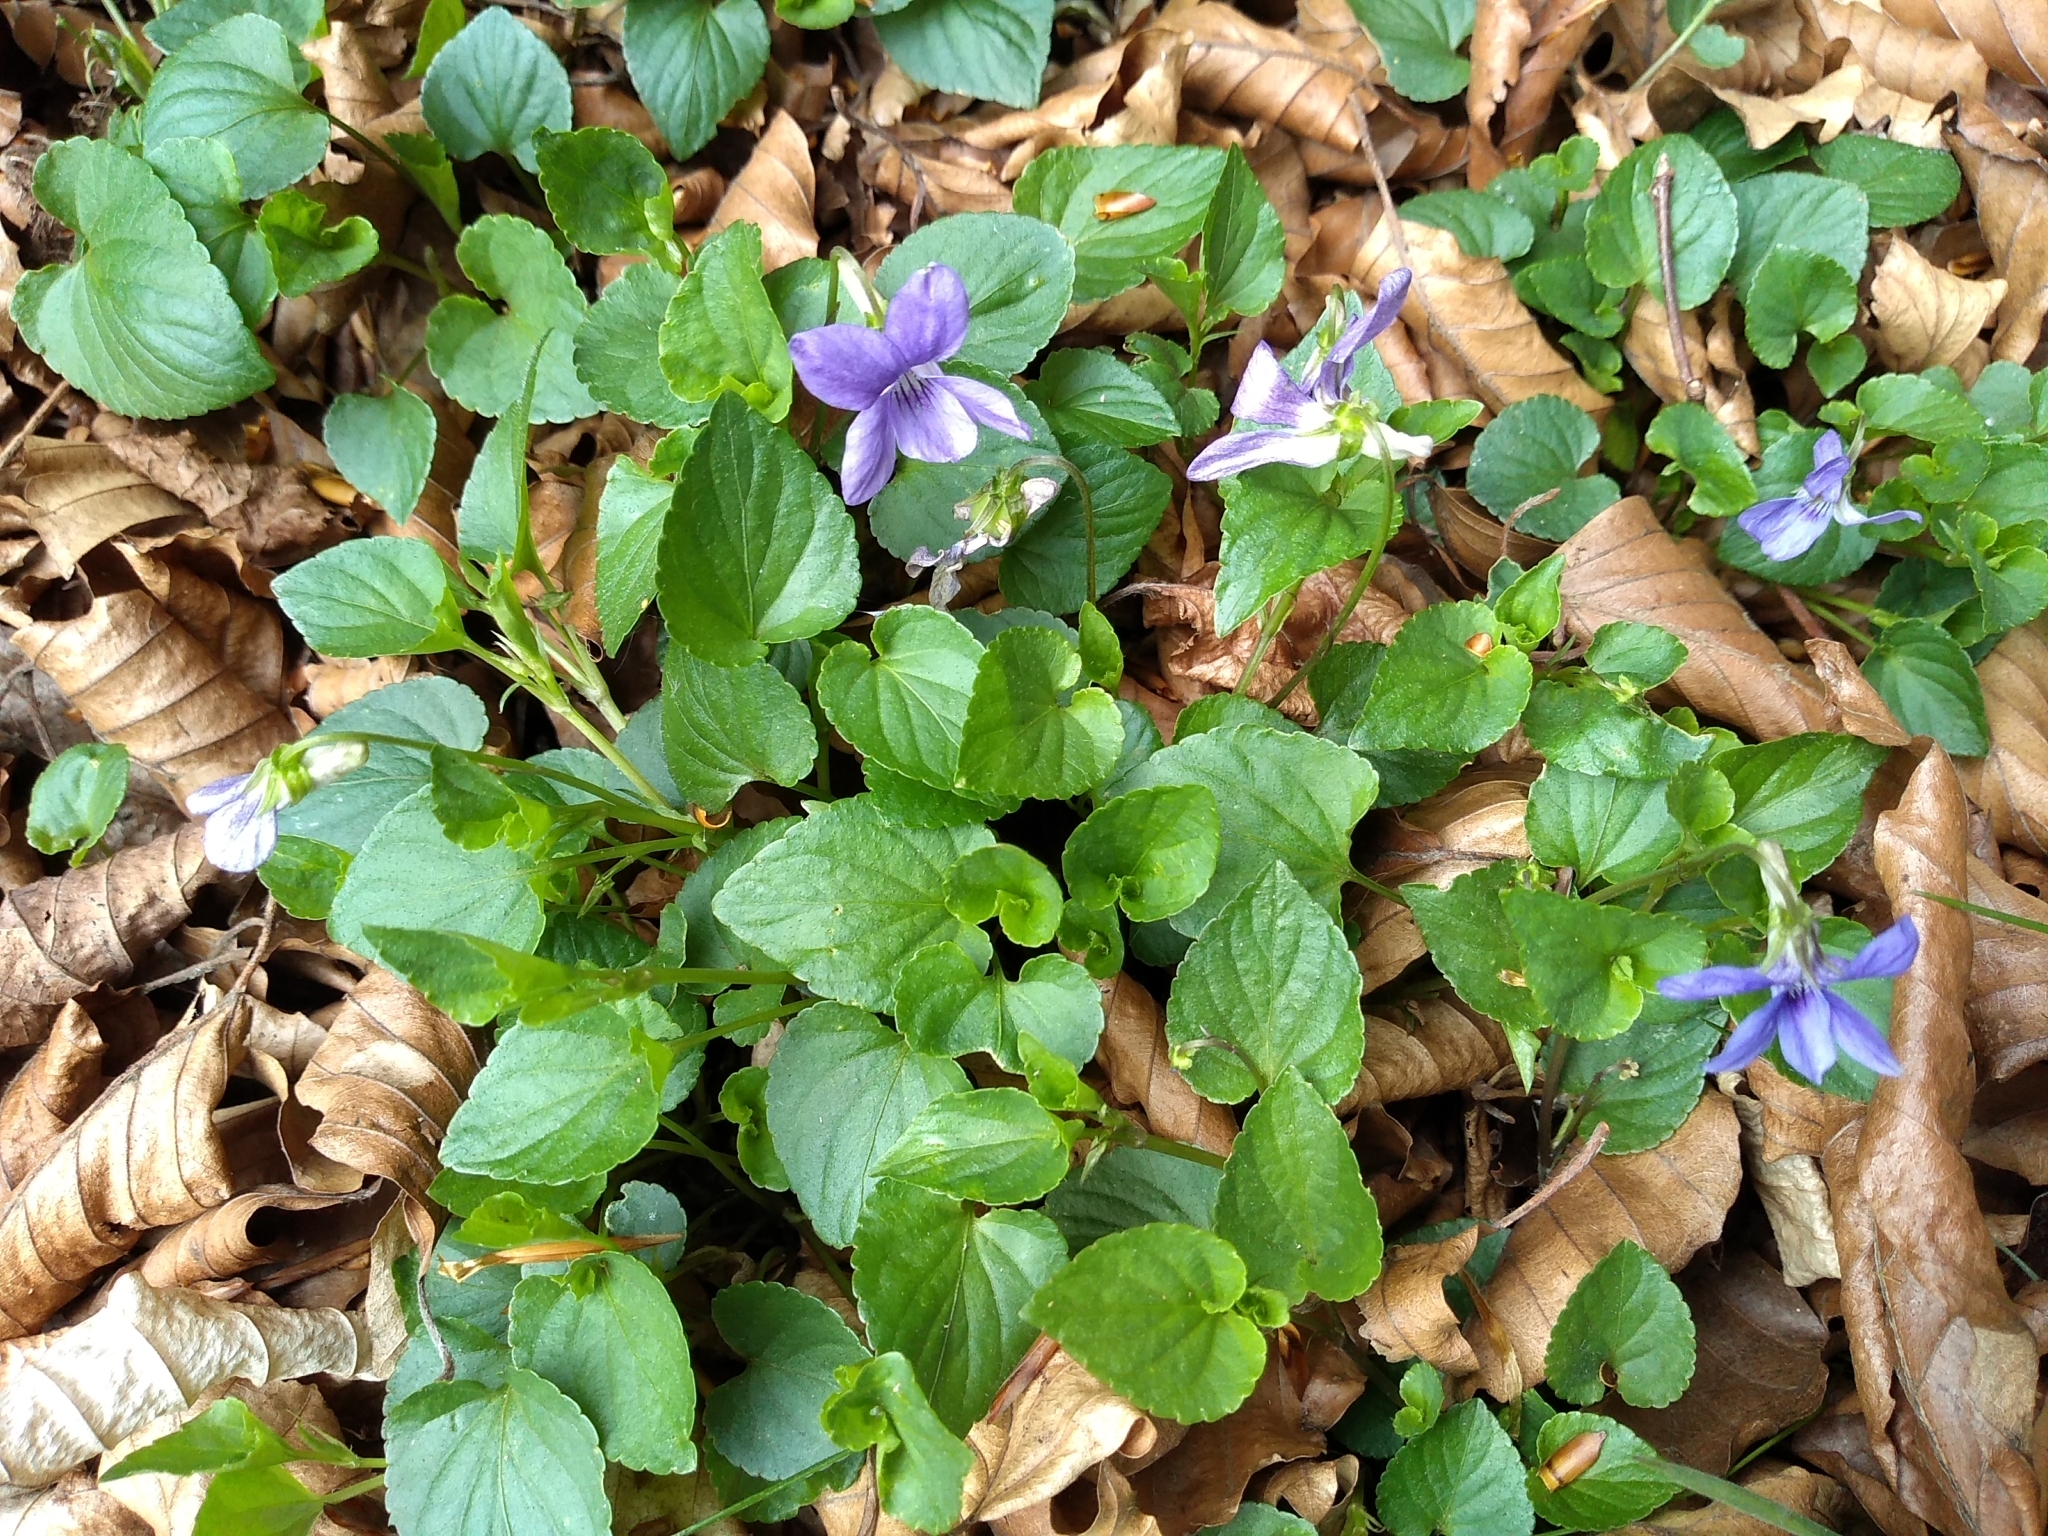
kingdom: Plantae
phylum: Tracheophyta
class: Magnoliopsida
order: Malpighiales
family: Violaceae
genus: Viola
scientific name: Viola riviniana
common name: Common dog-violet
